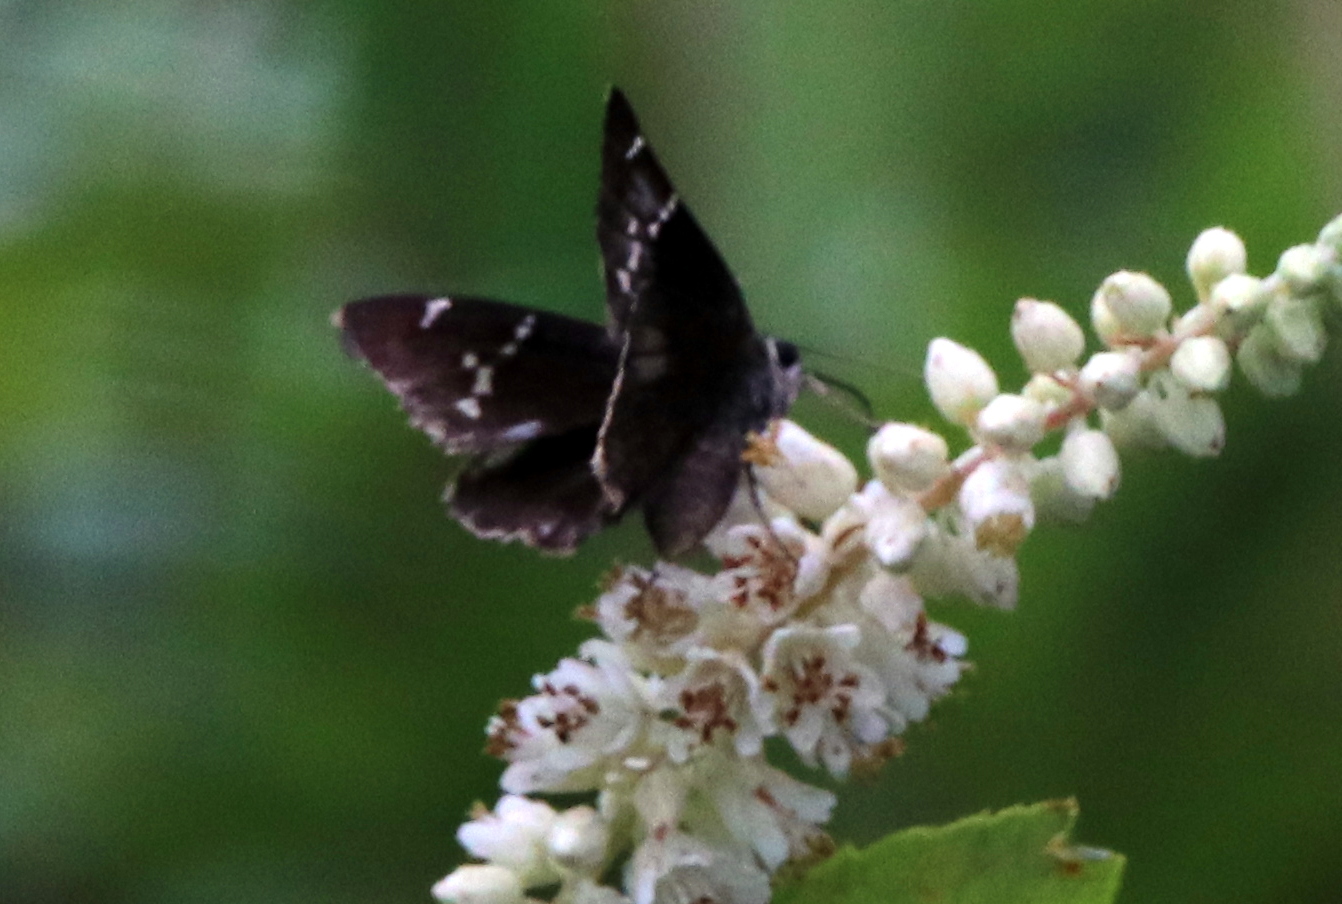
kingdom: Animalia
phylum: Arthropoda
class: Insecta
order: Lepidoptera
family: Hesperiidae
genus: Thorybes
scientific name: Thorybes daunus
